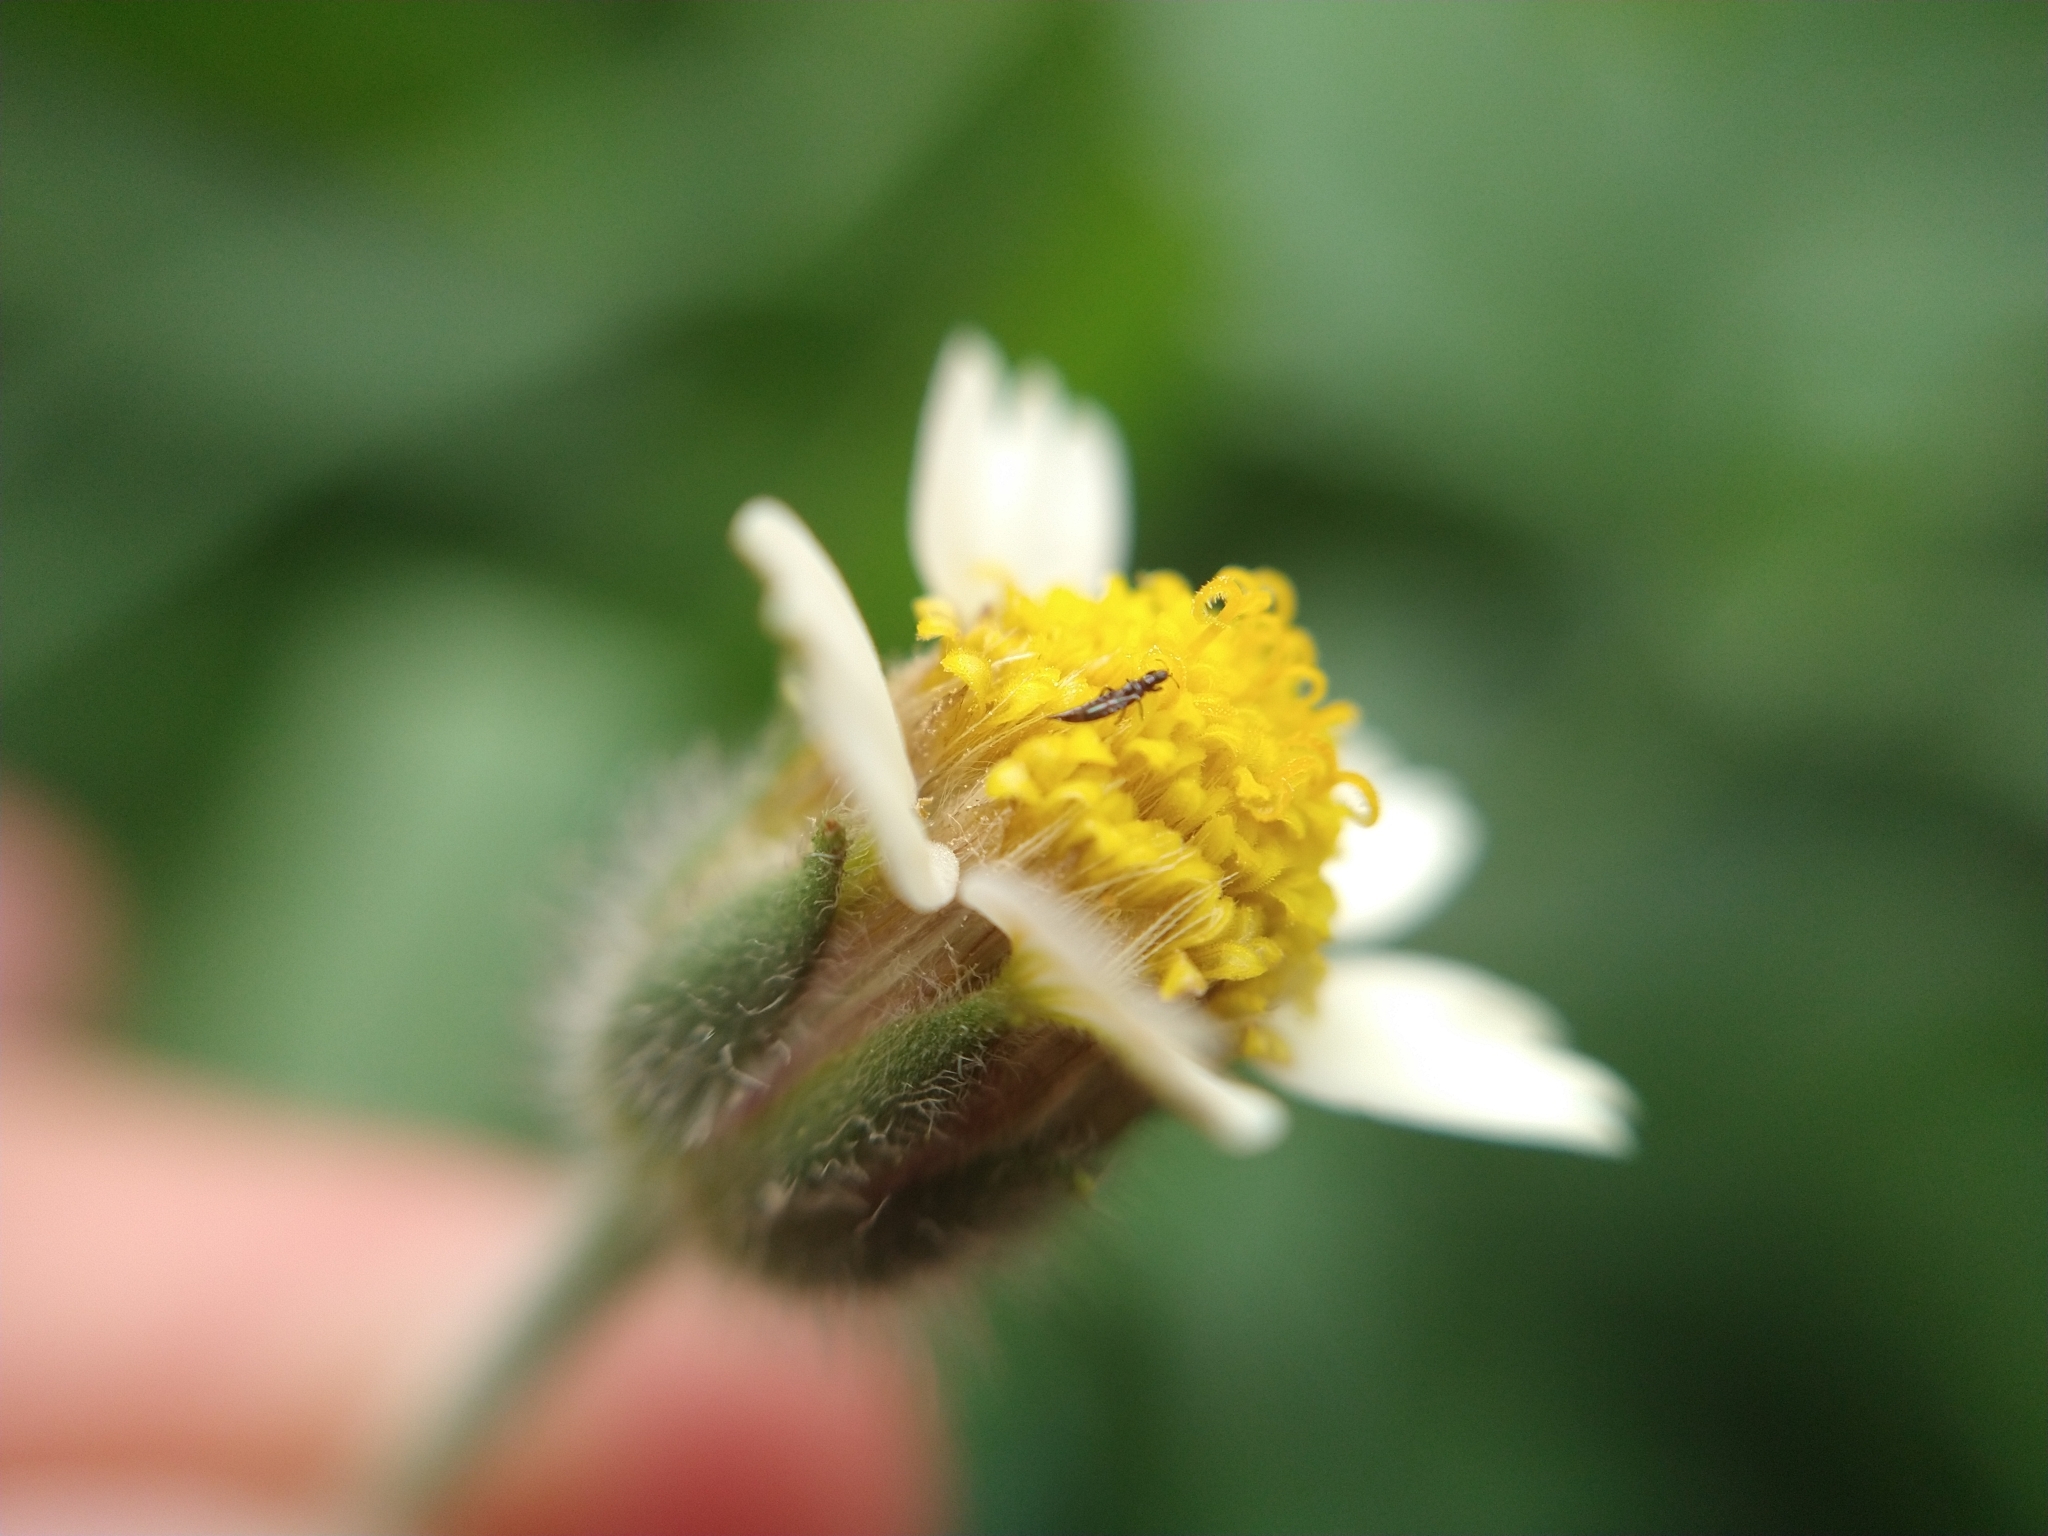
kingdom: Plantae
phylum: Tracheophyta
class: Magnoliopsida
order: Asterales
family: Asteraceae
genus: Tridax
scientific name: Tridax procumbens
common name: Coatbuttons
